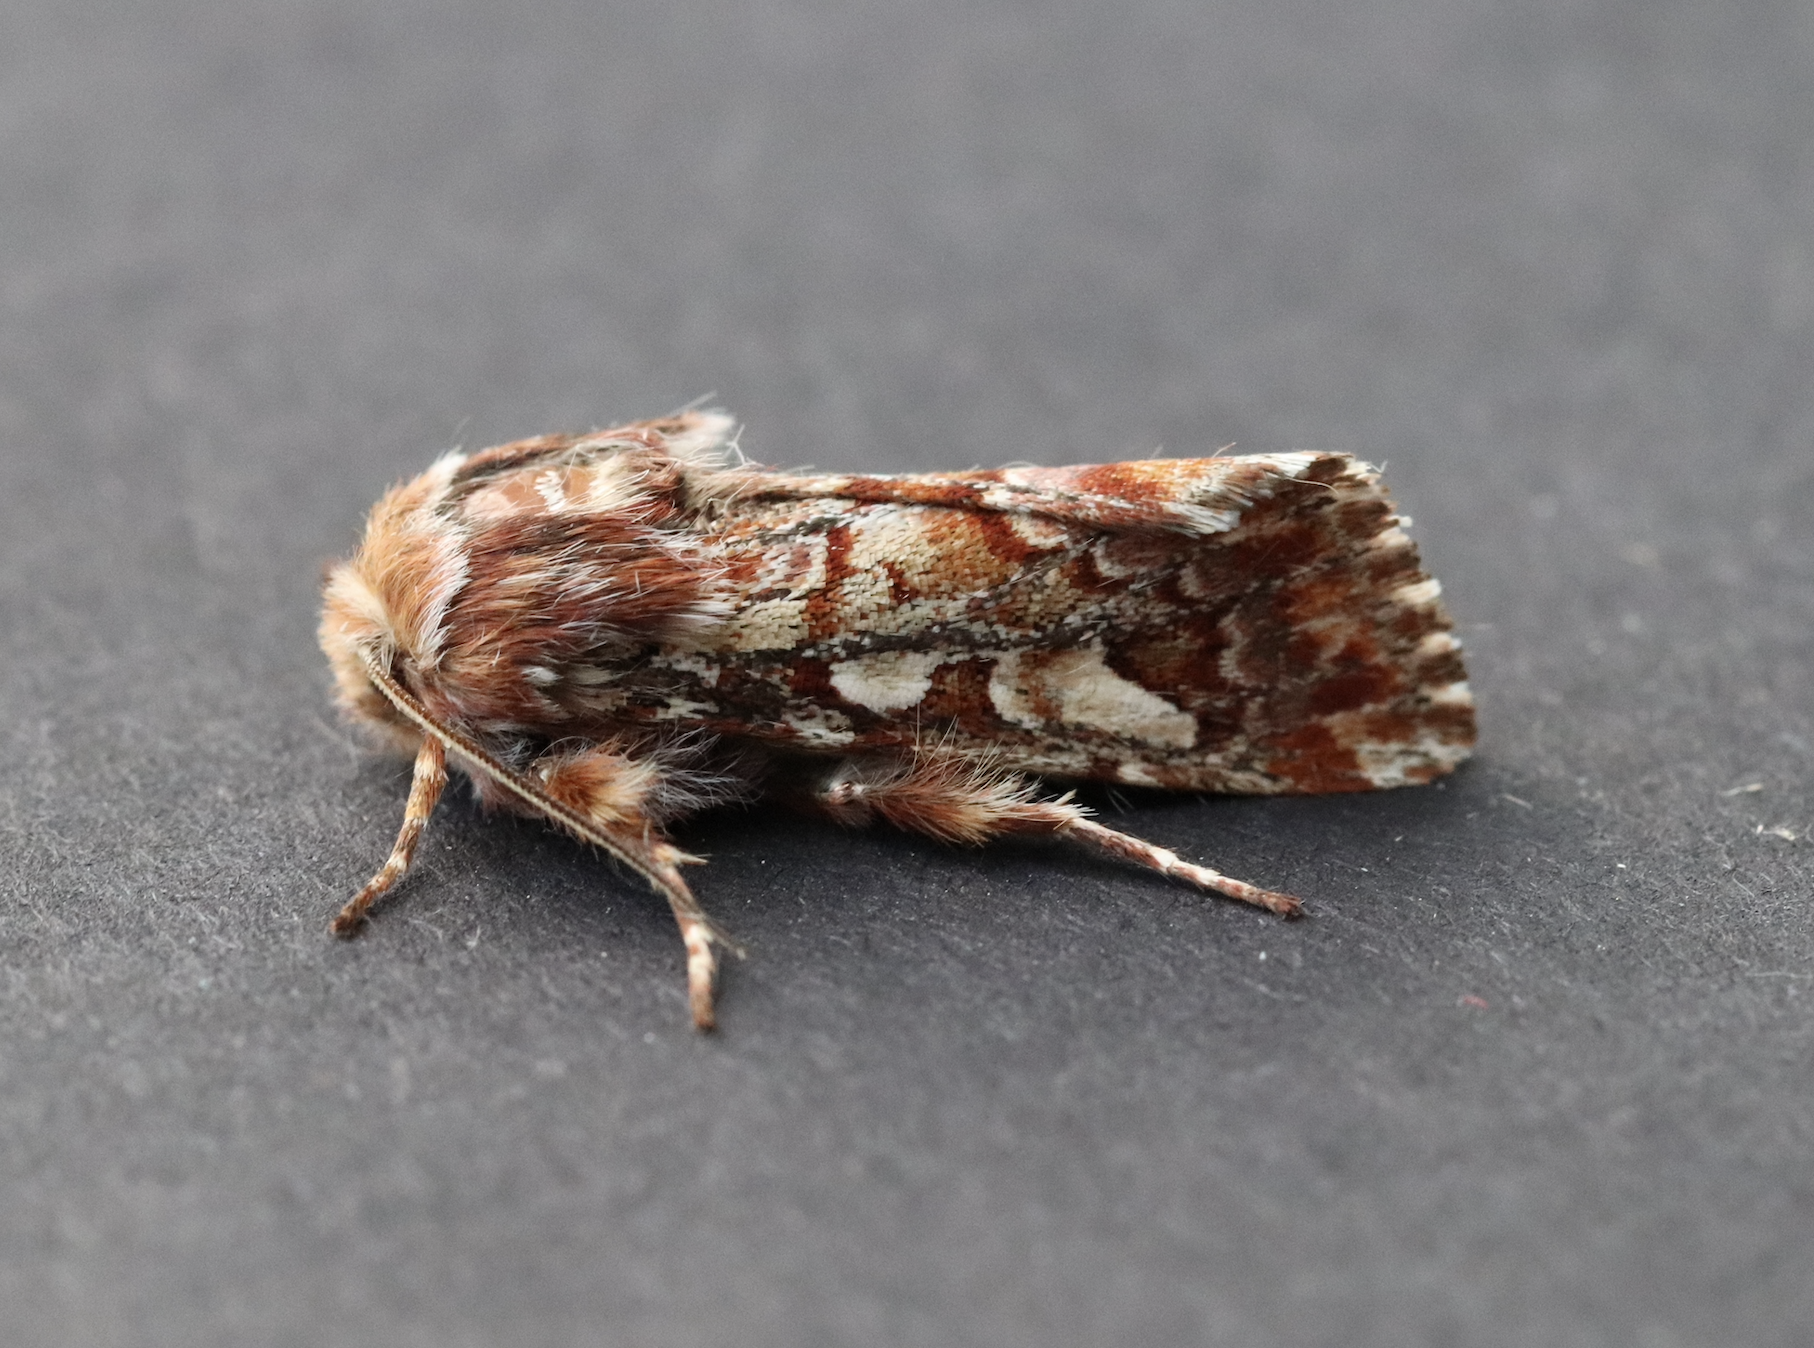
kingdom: Animalia
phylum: Arthropoda
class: Insecta
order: Lepidoptera
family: Noctuidae
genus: Panolis
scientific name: Panolis flammea
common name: Pine beauty
